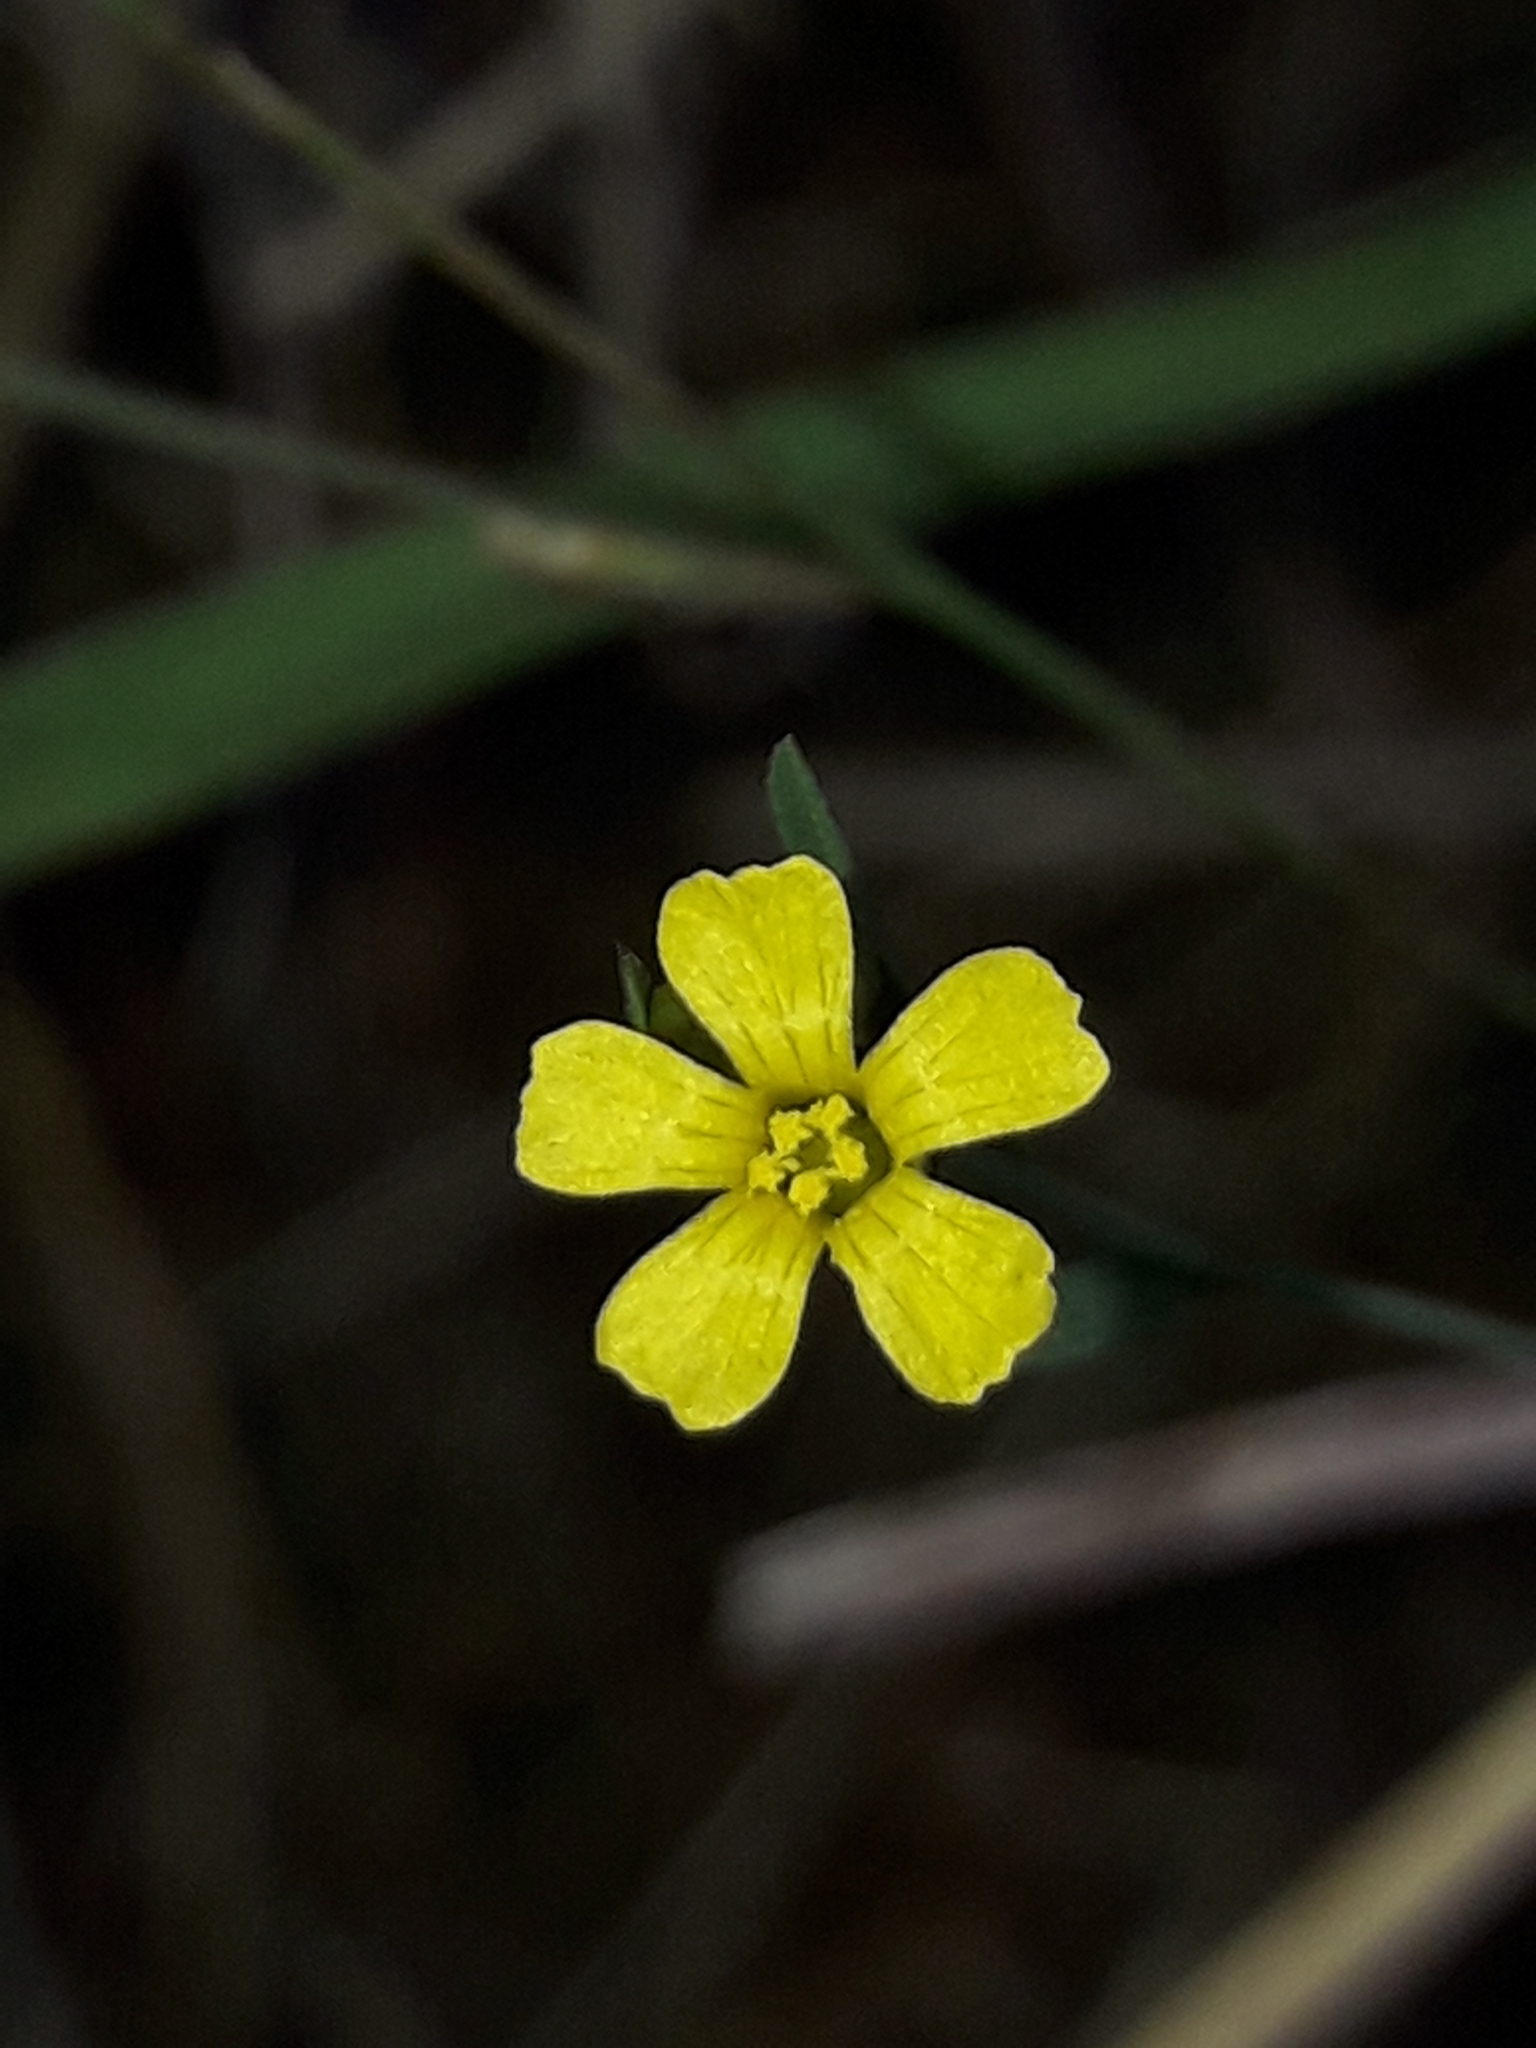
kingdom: Plantae
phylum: Tracheophyta
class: Magnoliopsida
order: Malpighiales
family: Linaceae
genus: Linum
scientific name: Linum trigynum
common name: French flax
